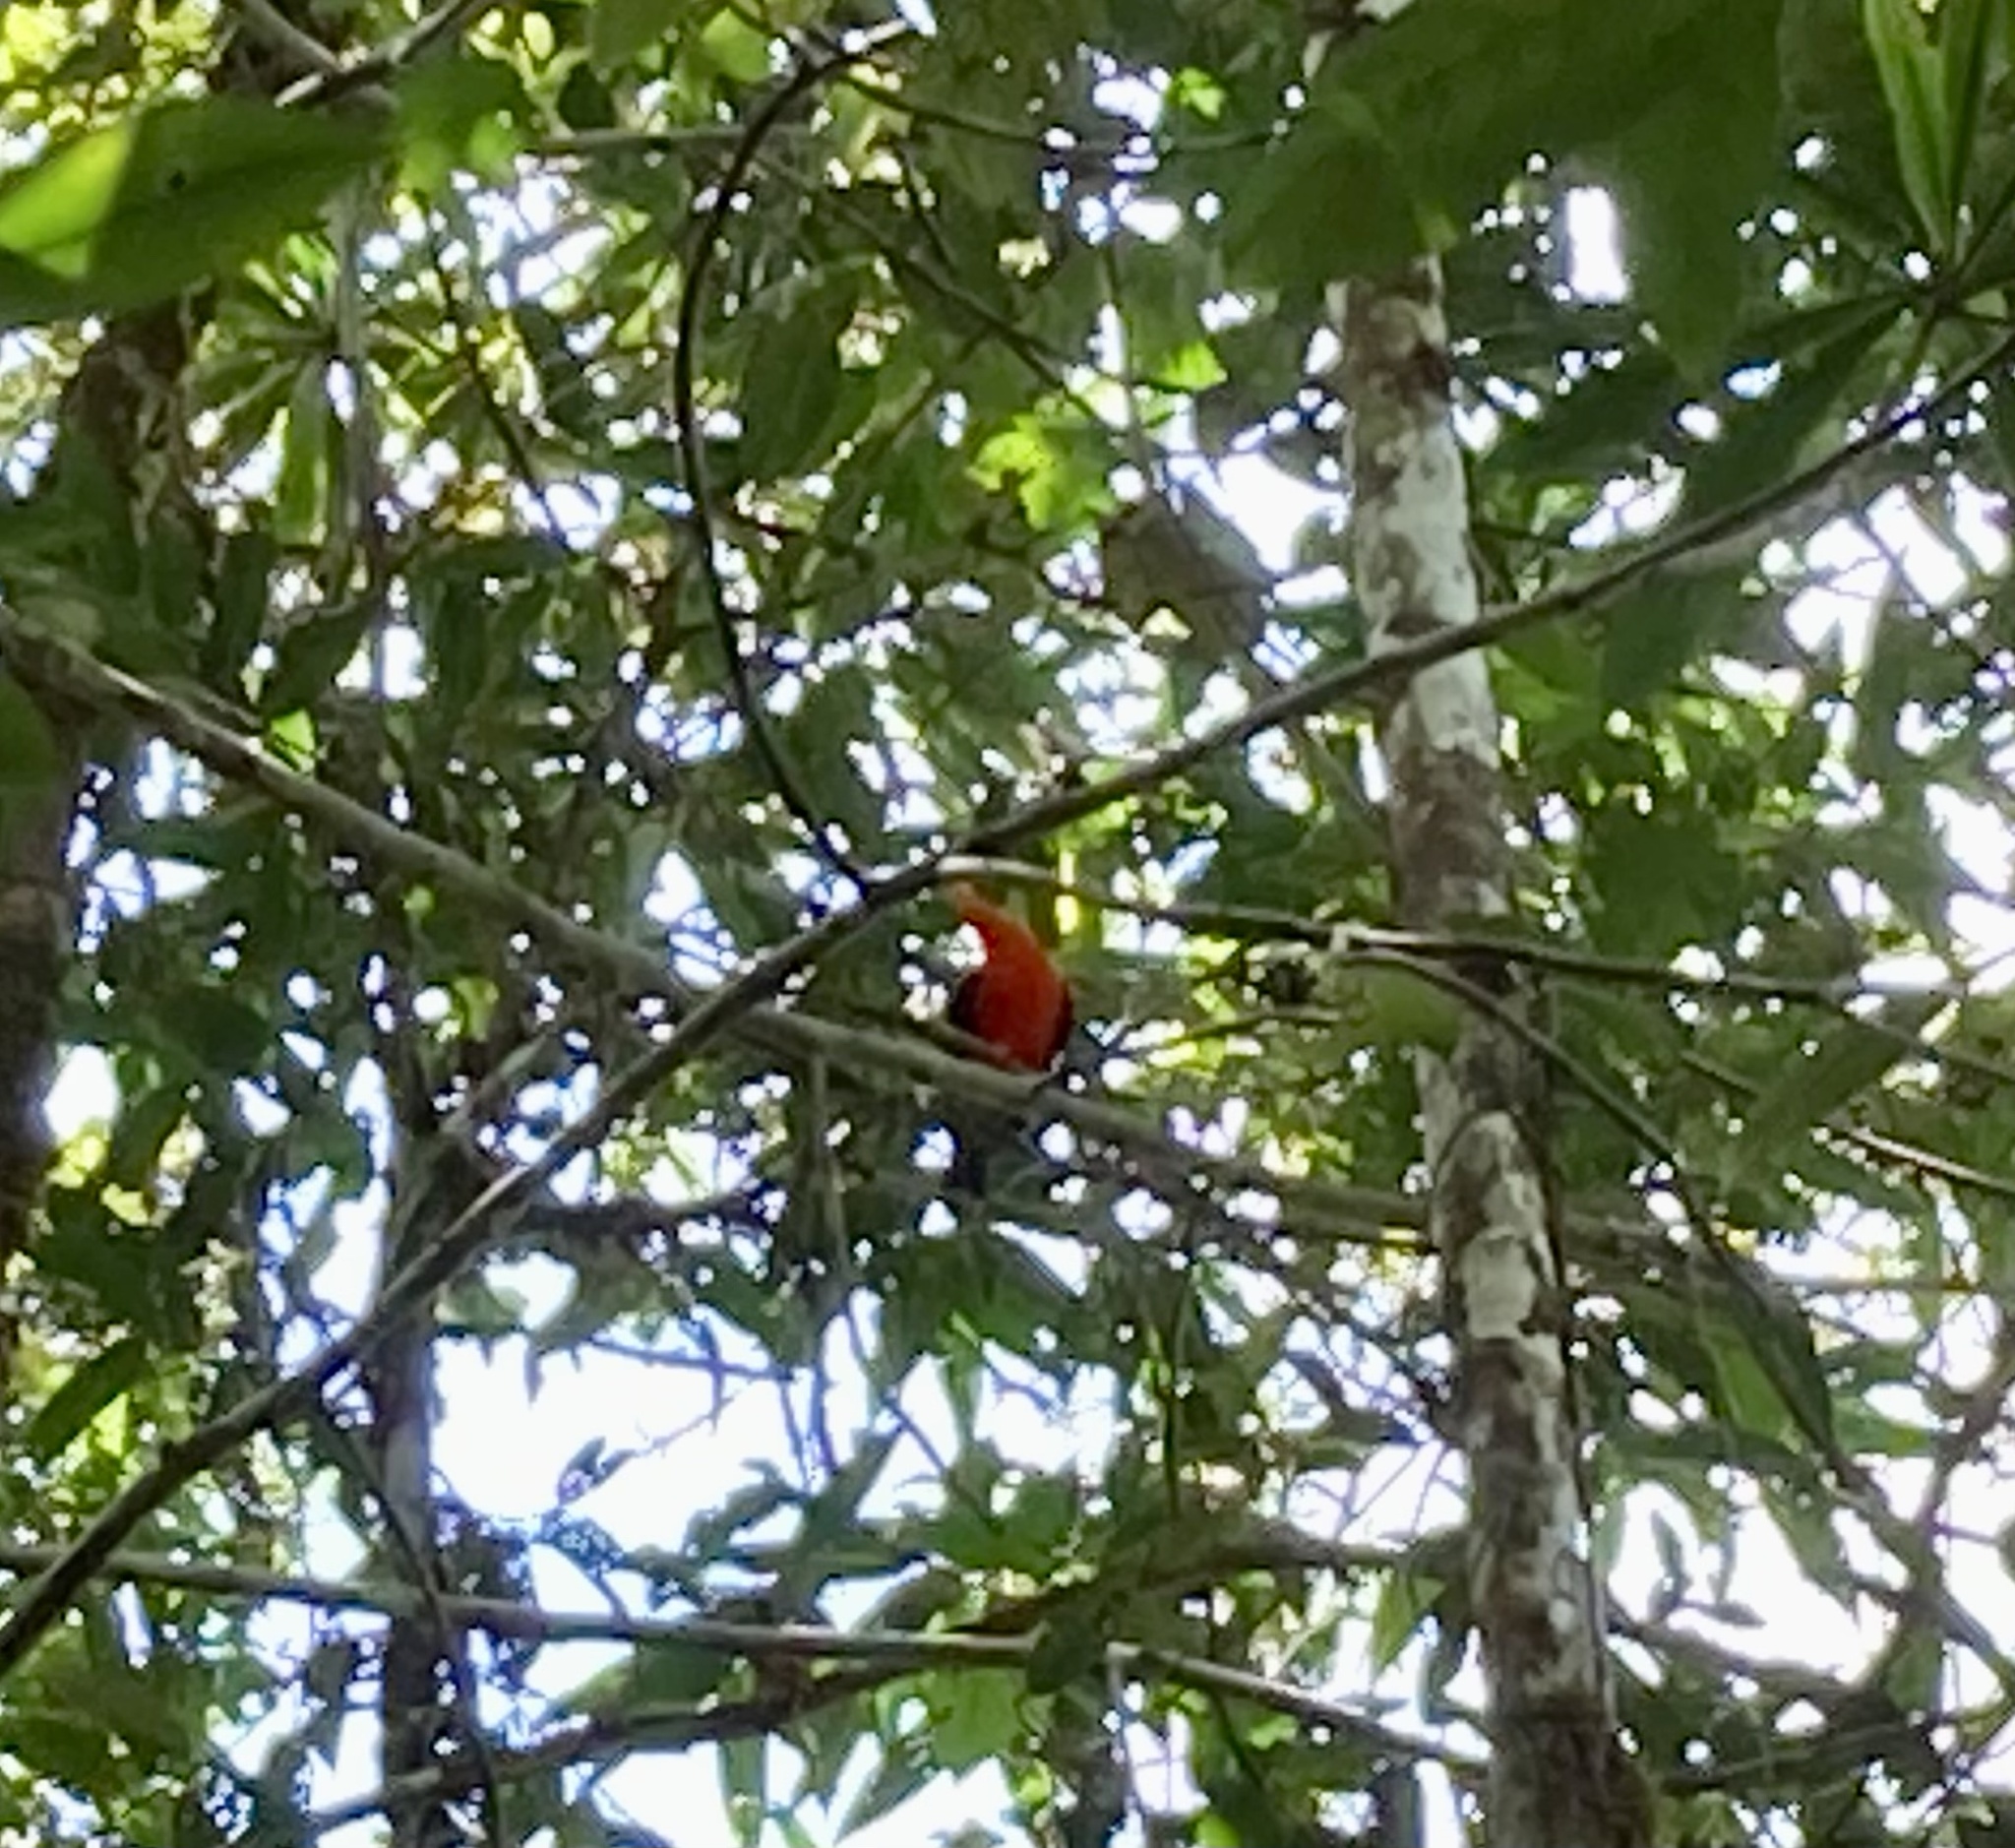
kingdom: Animalia
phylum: Chordata
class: Aves
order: Passeriformes
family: Cotingidae
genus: Rupicola
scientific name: Rupicola peruvianus
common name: Andean cock-of-the-rock
